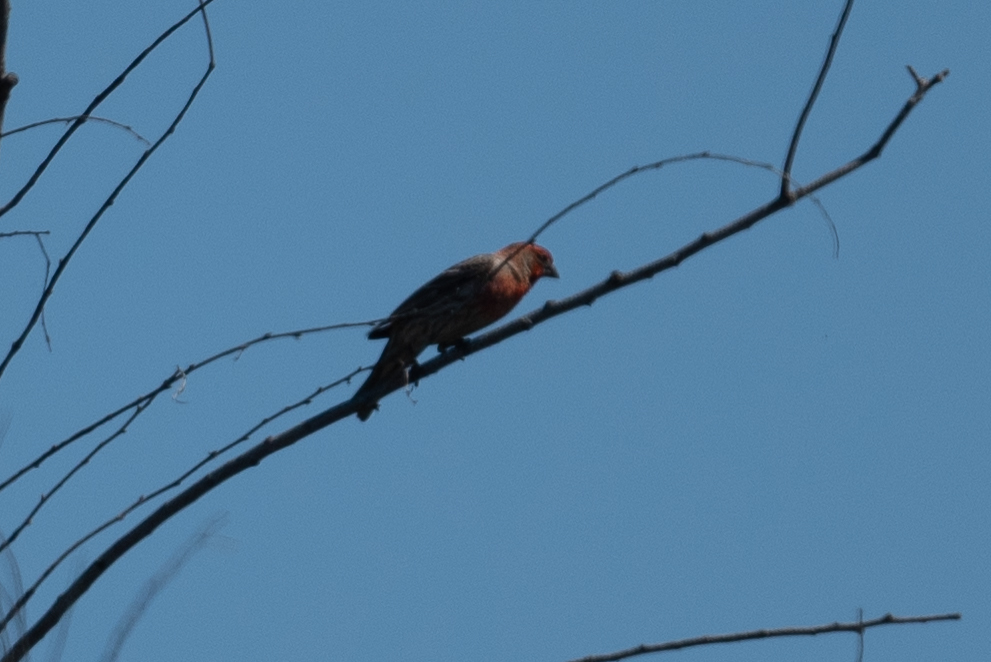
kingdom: Animalia
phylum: Chordata
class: Aves
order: Passeriformes
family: Fringillidae
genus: Haemorhous
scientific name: Haemorhous mexicanus
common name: House finch
